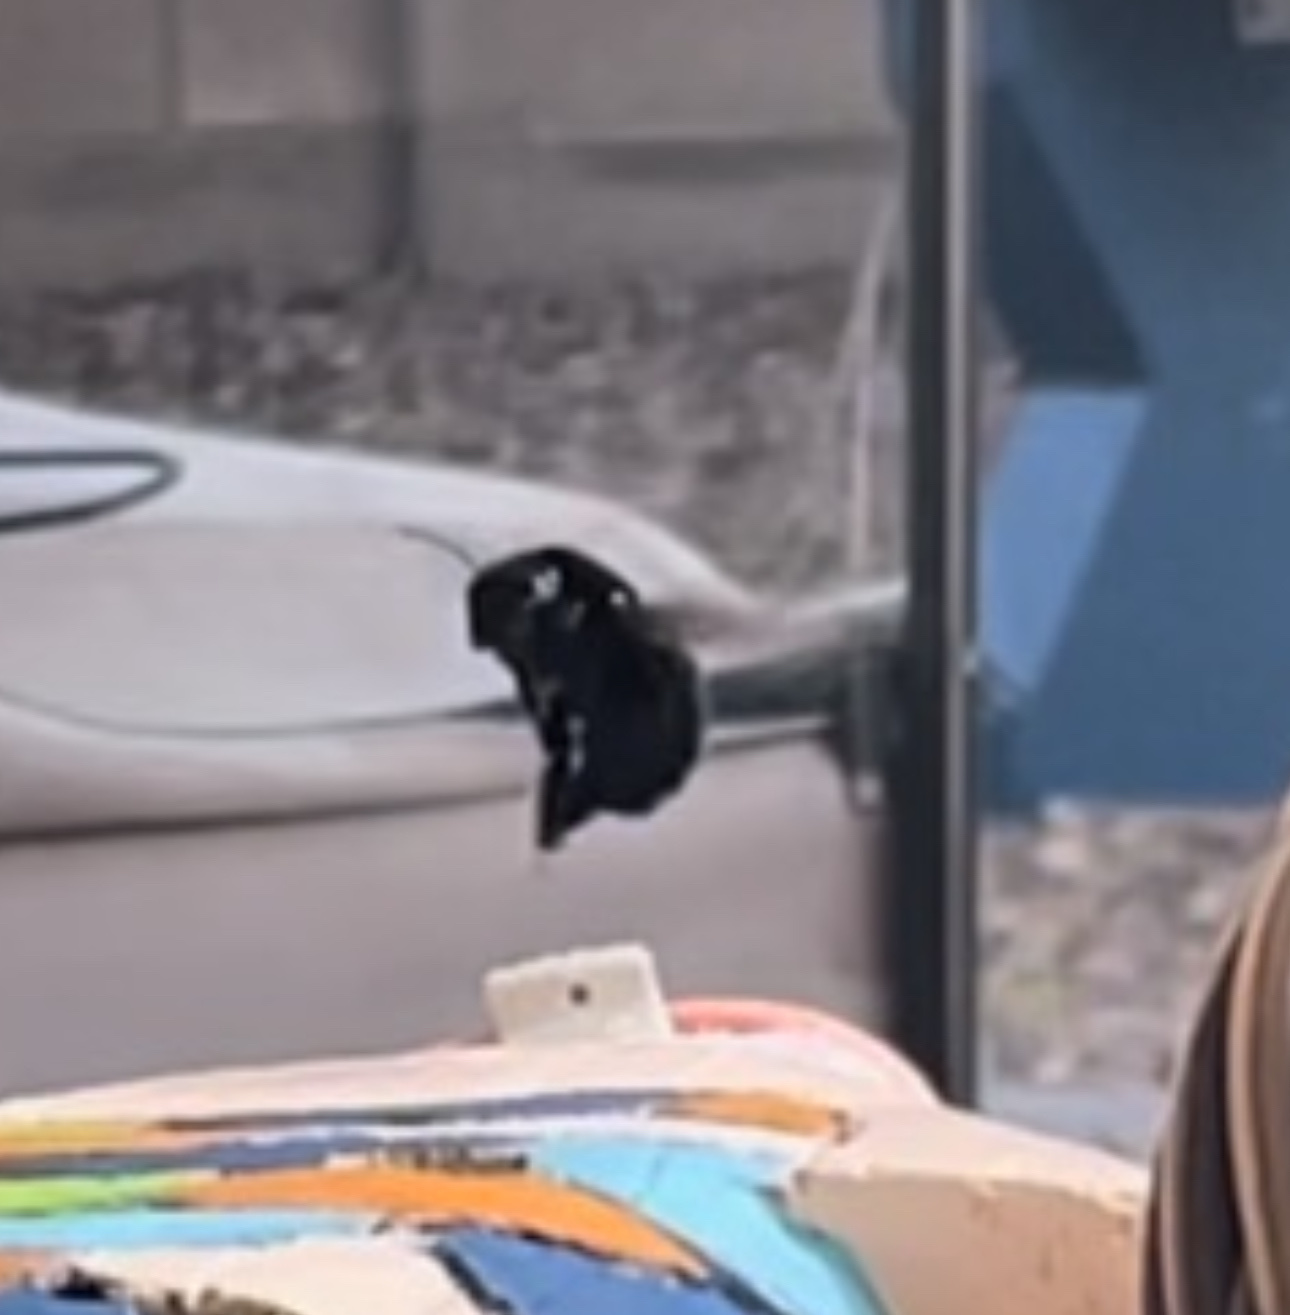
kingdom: Animalia
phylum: Arthropoda
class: Insecta
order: Hymenoptera
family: Apidae
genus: Xylocopa
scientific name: Xylocopa californica
